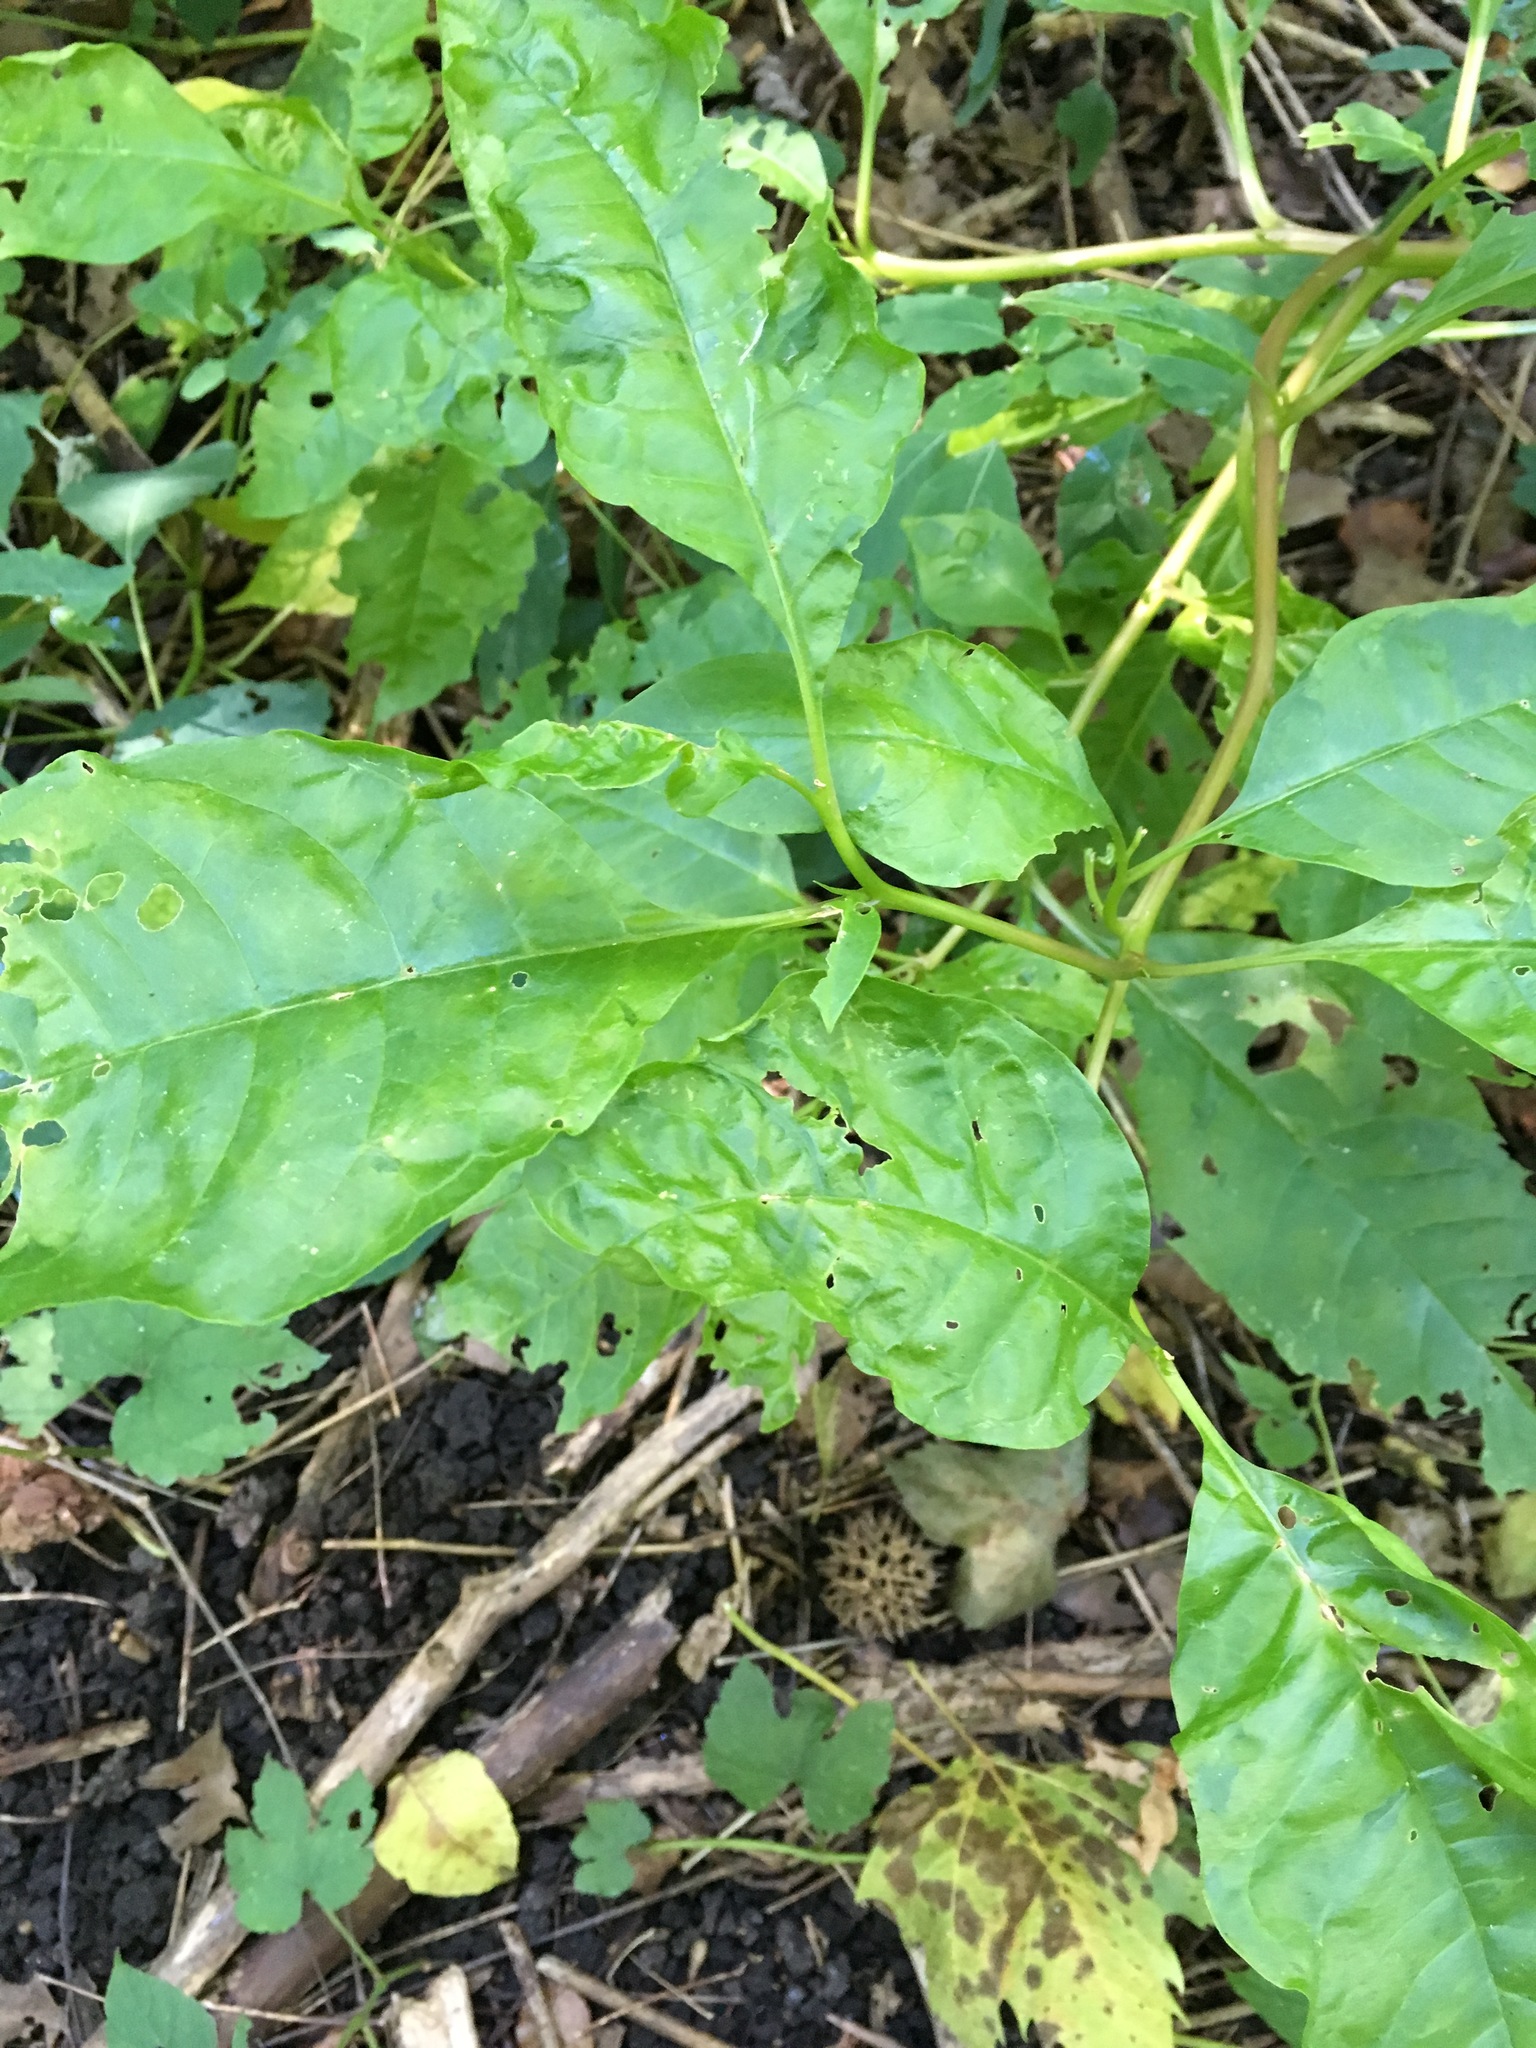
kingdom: Plantae
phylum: Tracheophyta
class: Magnoliopsida
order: Caryophyllales
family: Phytolaccaceae
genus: Phytolacca
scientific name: Phytolacca americana
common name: American pokeweed
